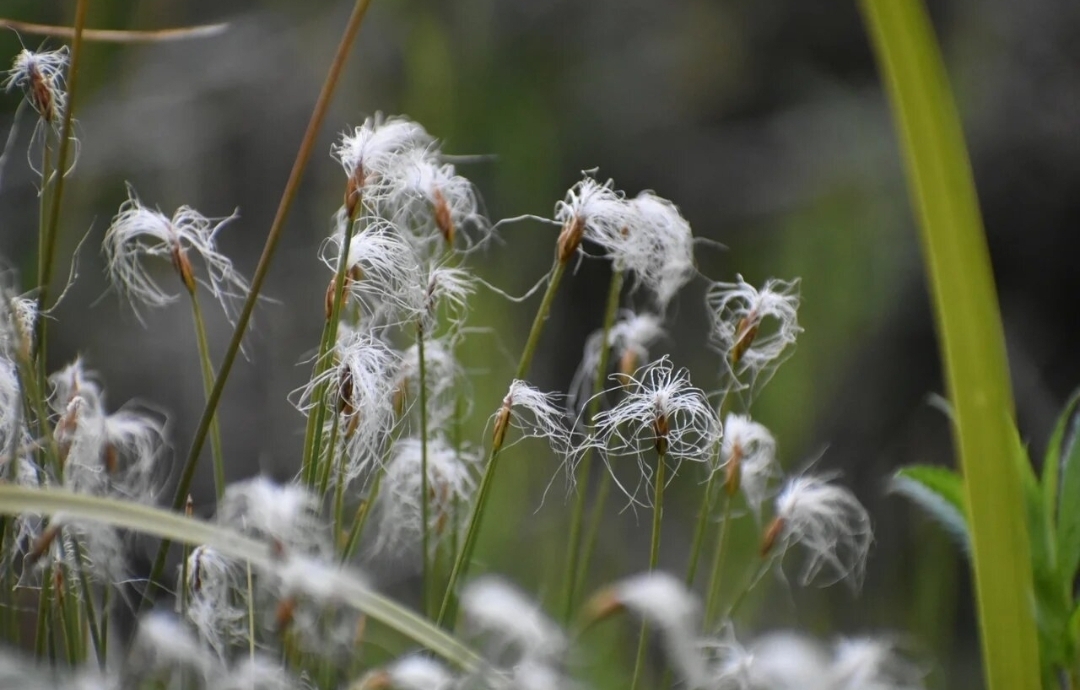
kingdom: Plantae
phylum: Tracheophyta
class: Liliopsida
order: Poales
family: Cyperaceae
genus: Trichophorum
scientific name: Trichophorum alpinum
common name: Alpine bulrush
